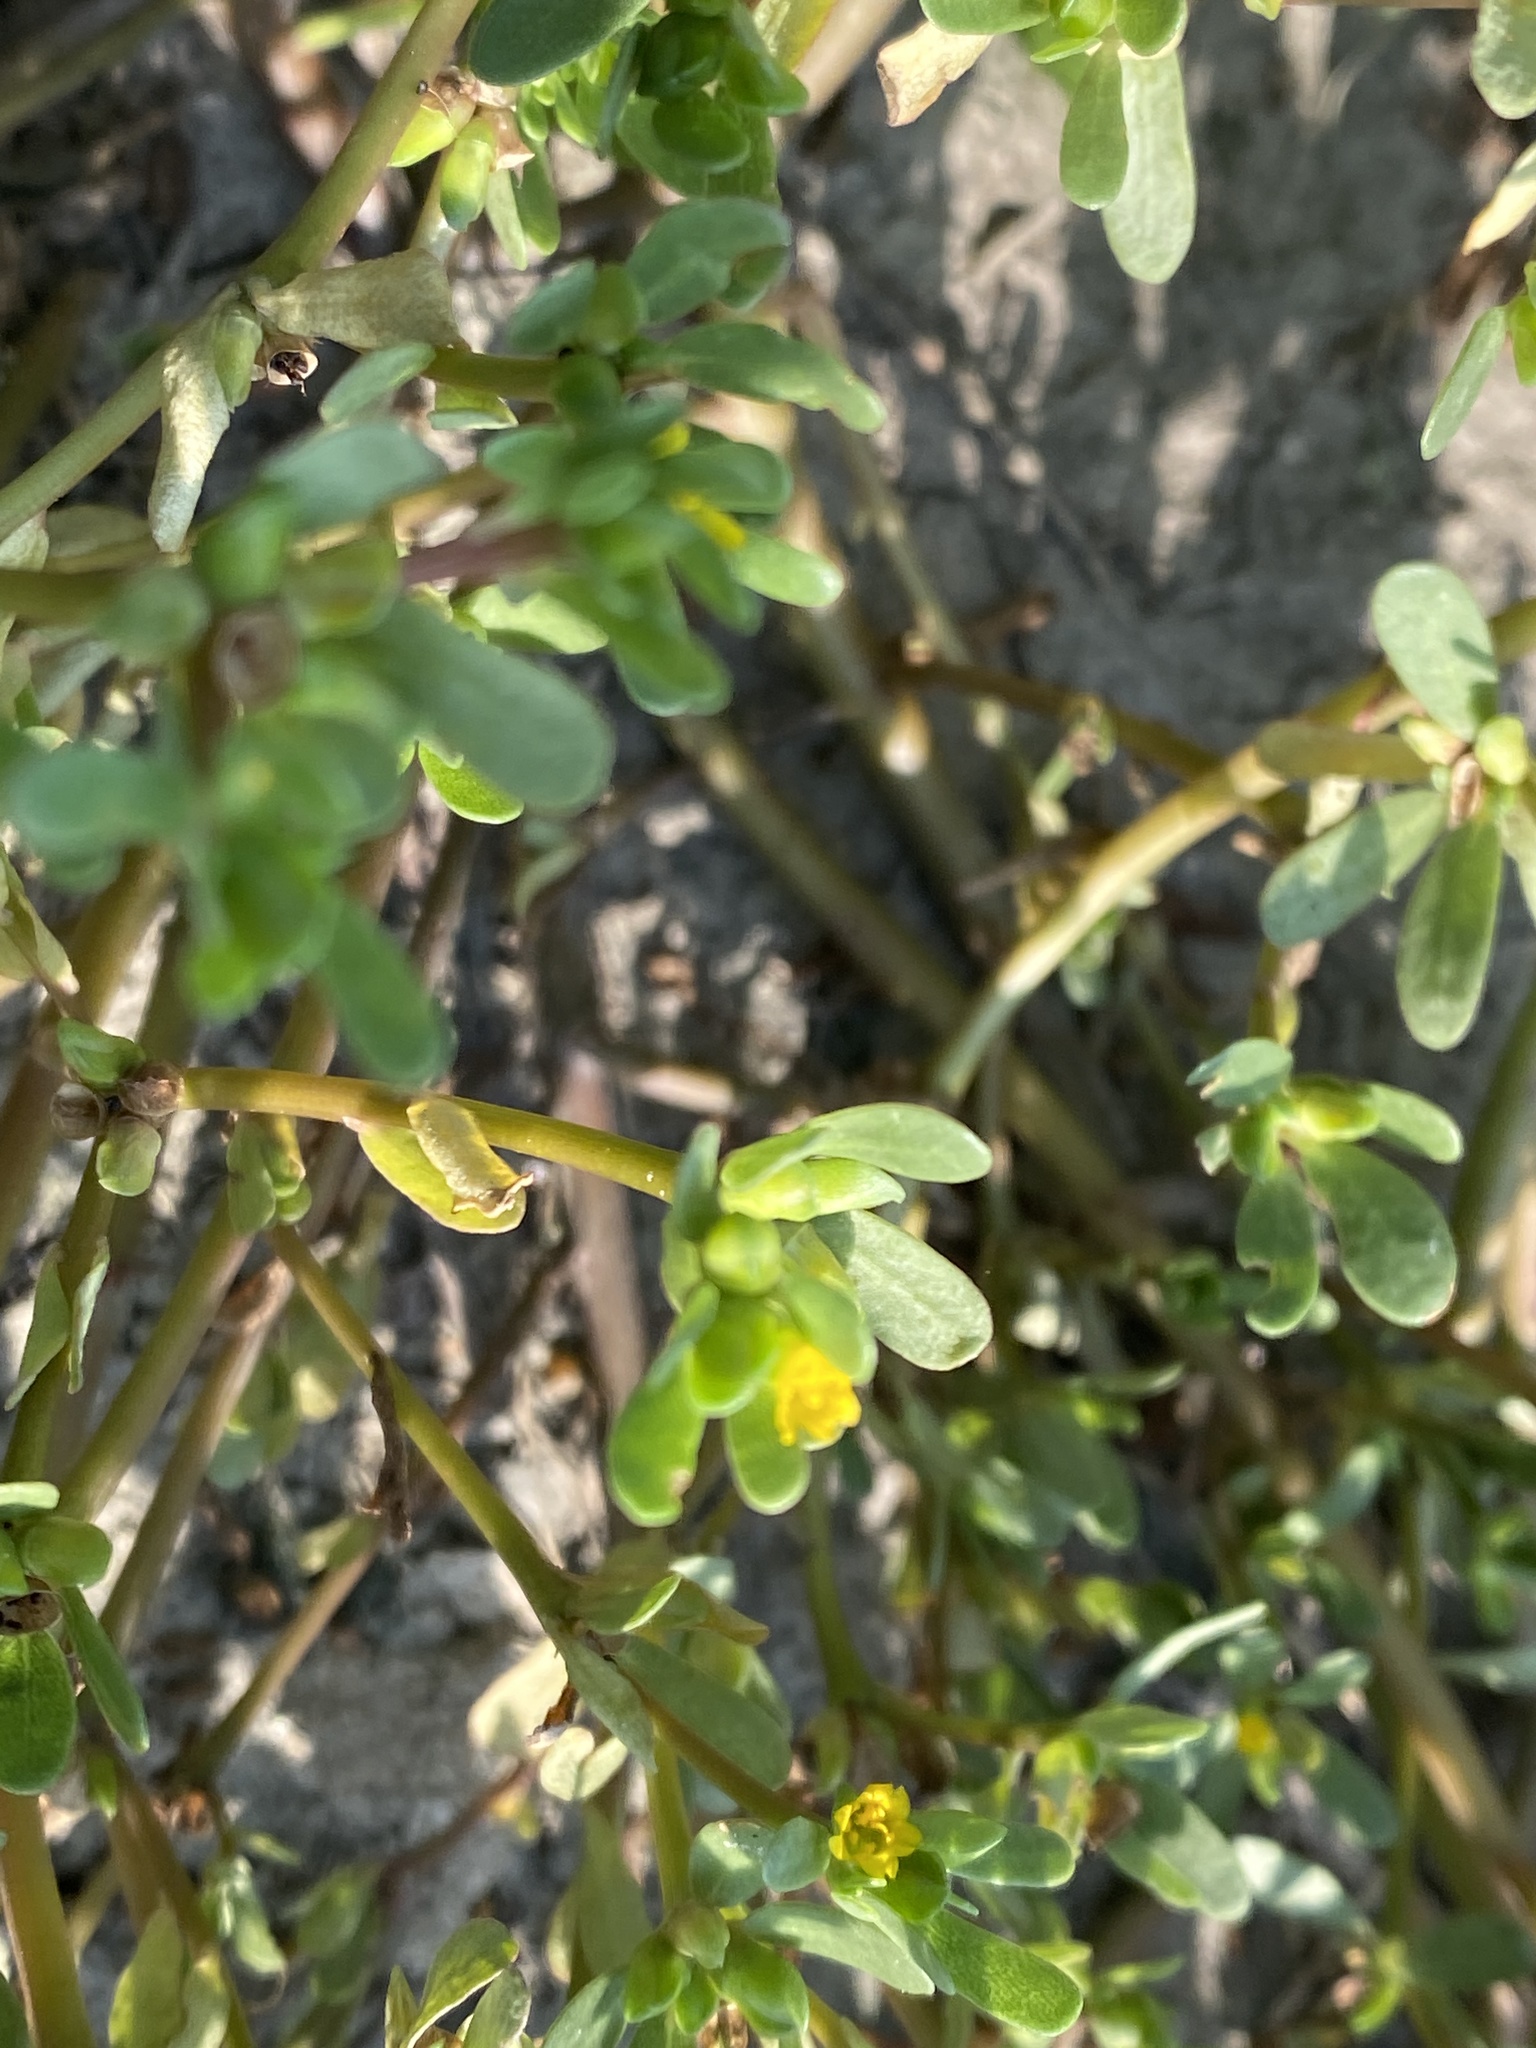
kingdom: Plantae
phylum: Tracheophyta
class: Magnoliopsida
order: Caryophyllales
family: Portulacaceae
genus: Portulaca
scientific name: Portulaca oleracea
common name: Common purslane
